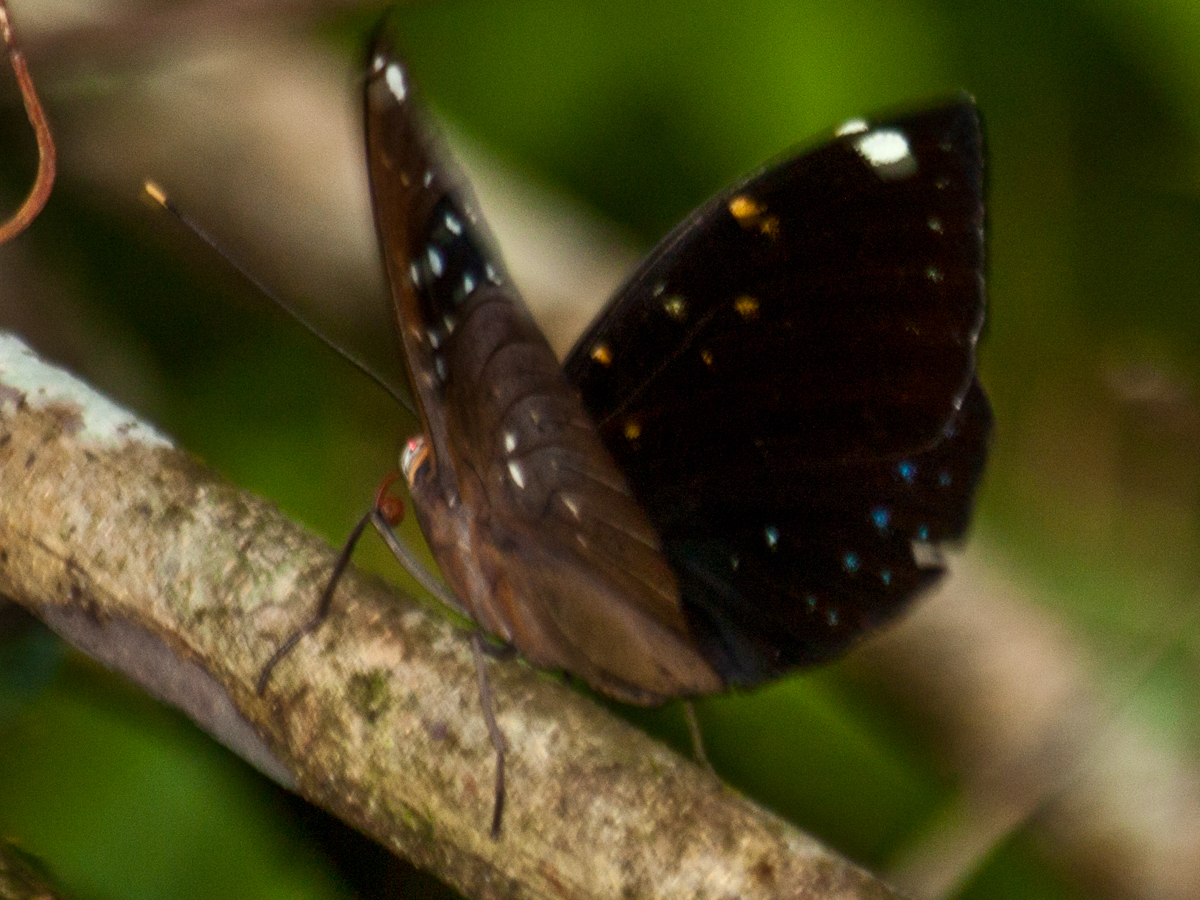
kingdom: Animalia
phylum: Arthropoda
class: Insecta
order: Lepidoptera
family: Nymphalidae
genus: Lexias
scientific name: Lexias
